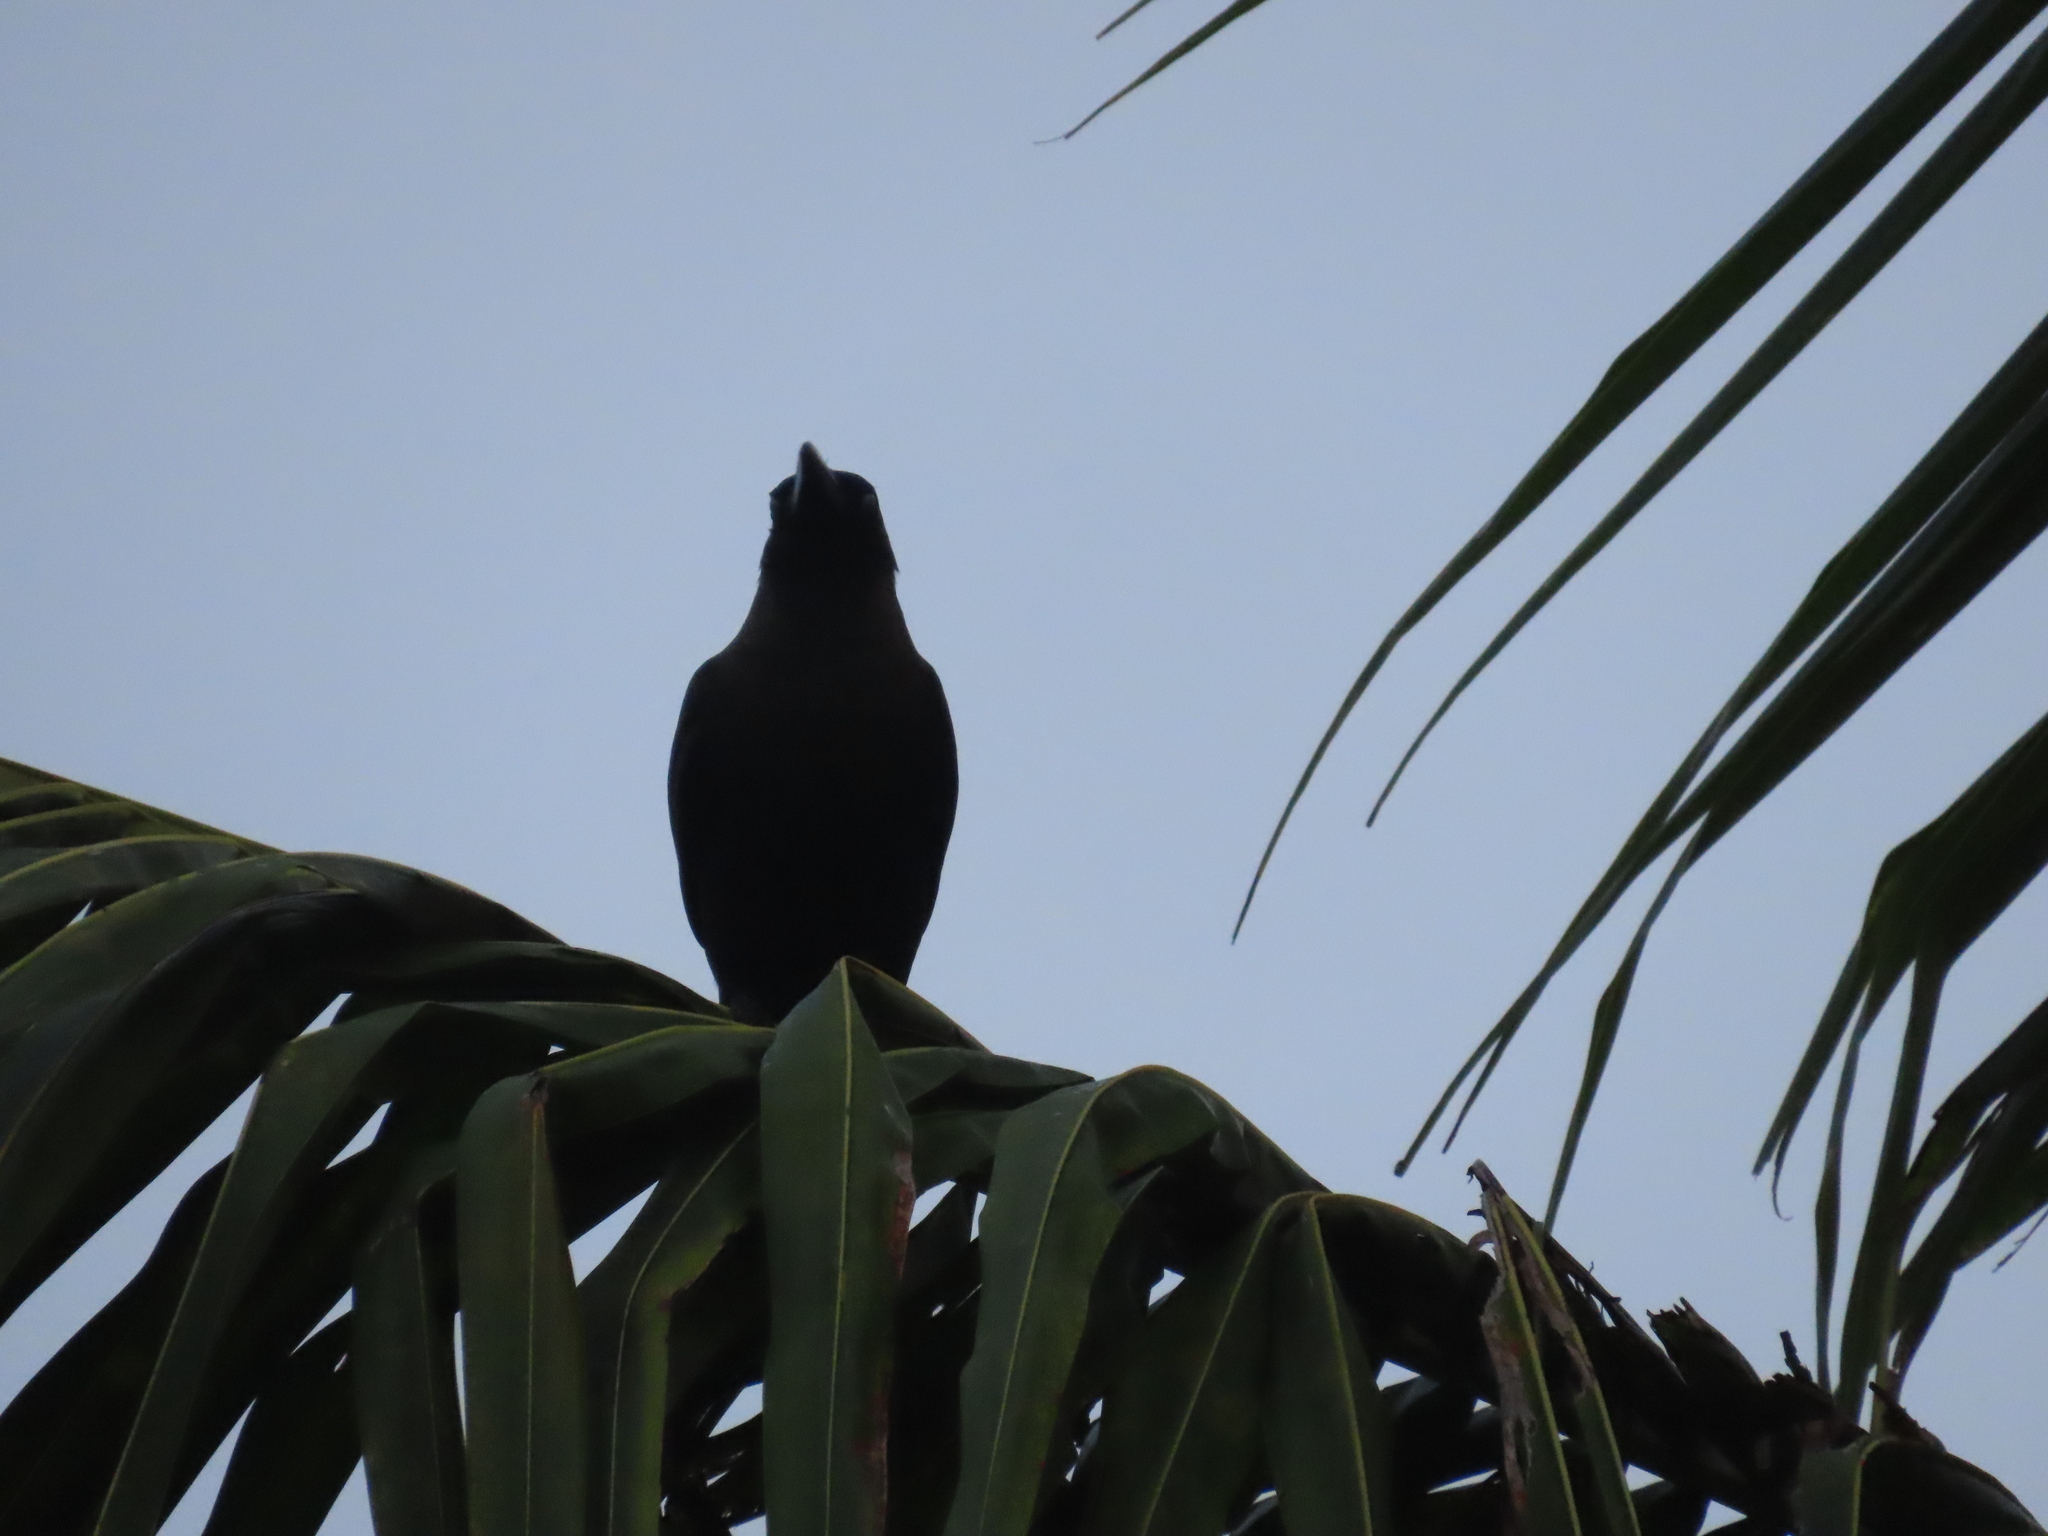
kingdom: Animalia
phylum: Chordata
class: Aves
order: Passeriformes
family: Corvidae
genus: Corvus
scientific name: Corvus splendens
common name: House crow
